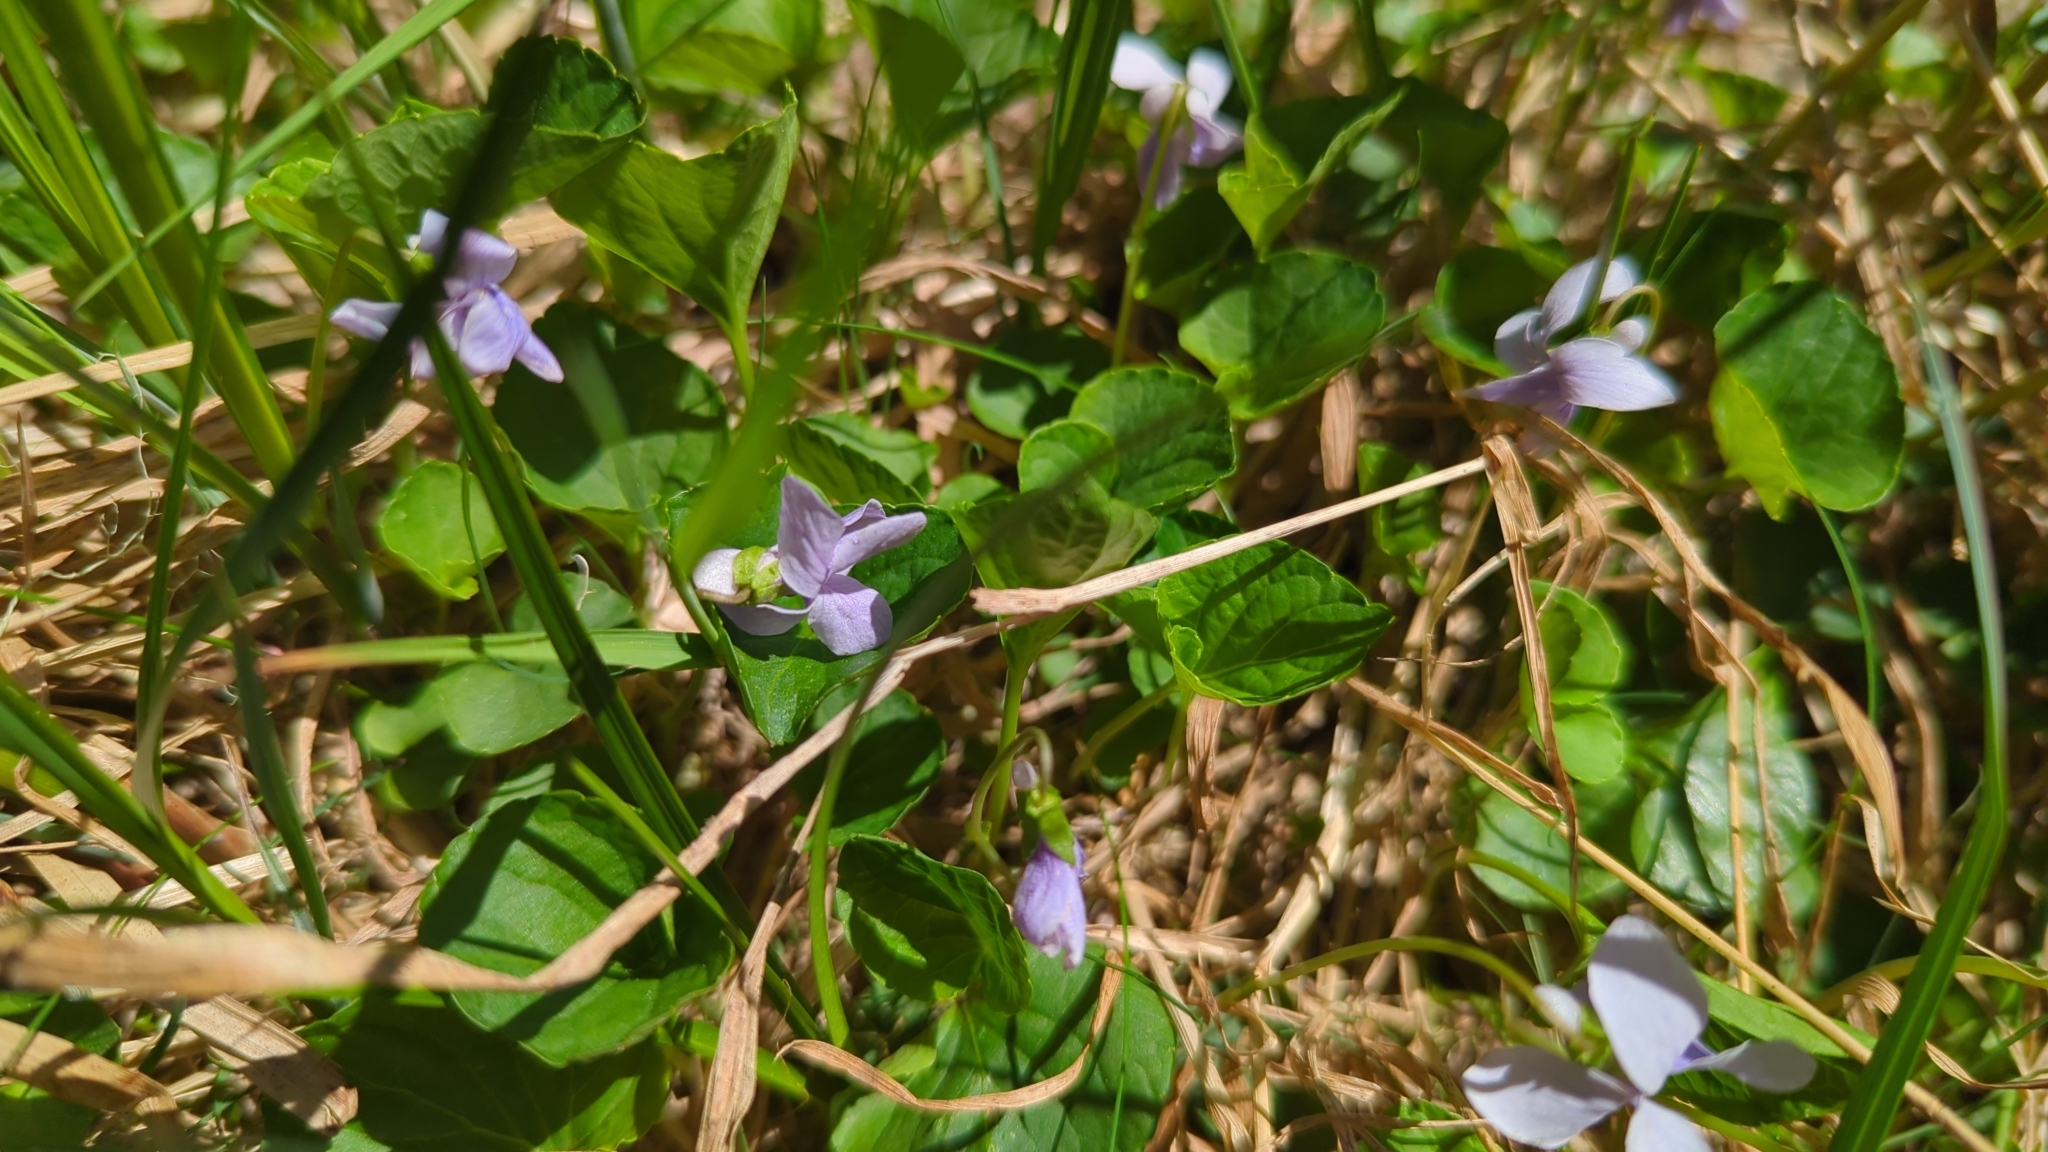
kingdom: Plantae
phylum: Tracheophyta
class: Magnoliopsida
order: Malpighiales
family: Violaceae
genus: Viola
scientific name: Viola palustris
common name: Marsh violet
